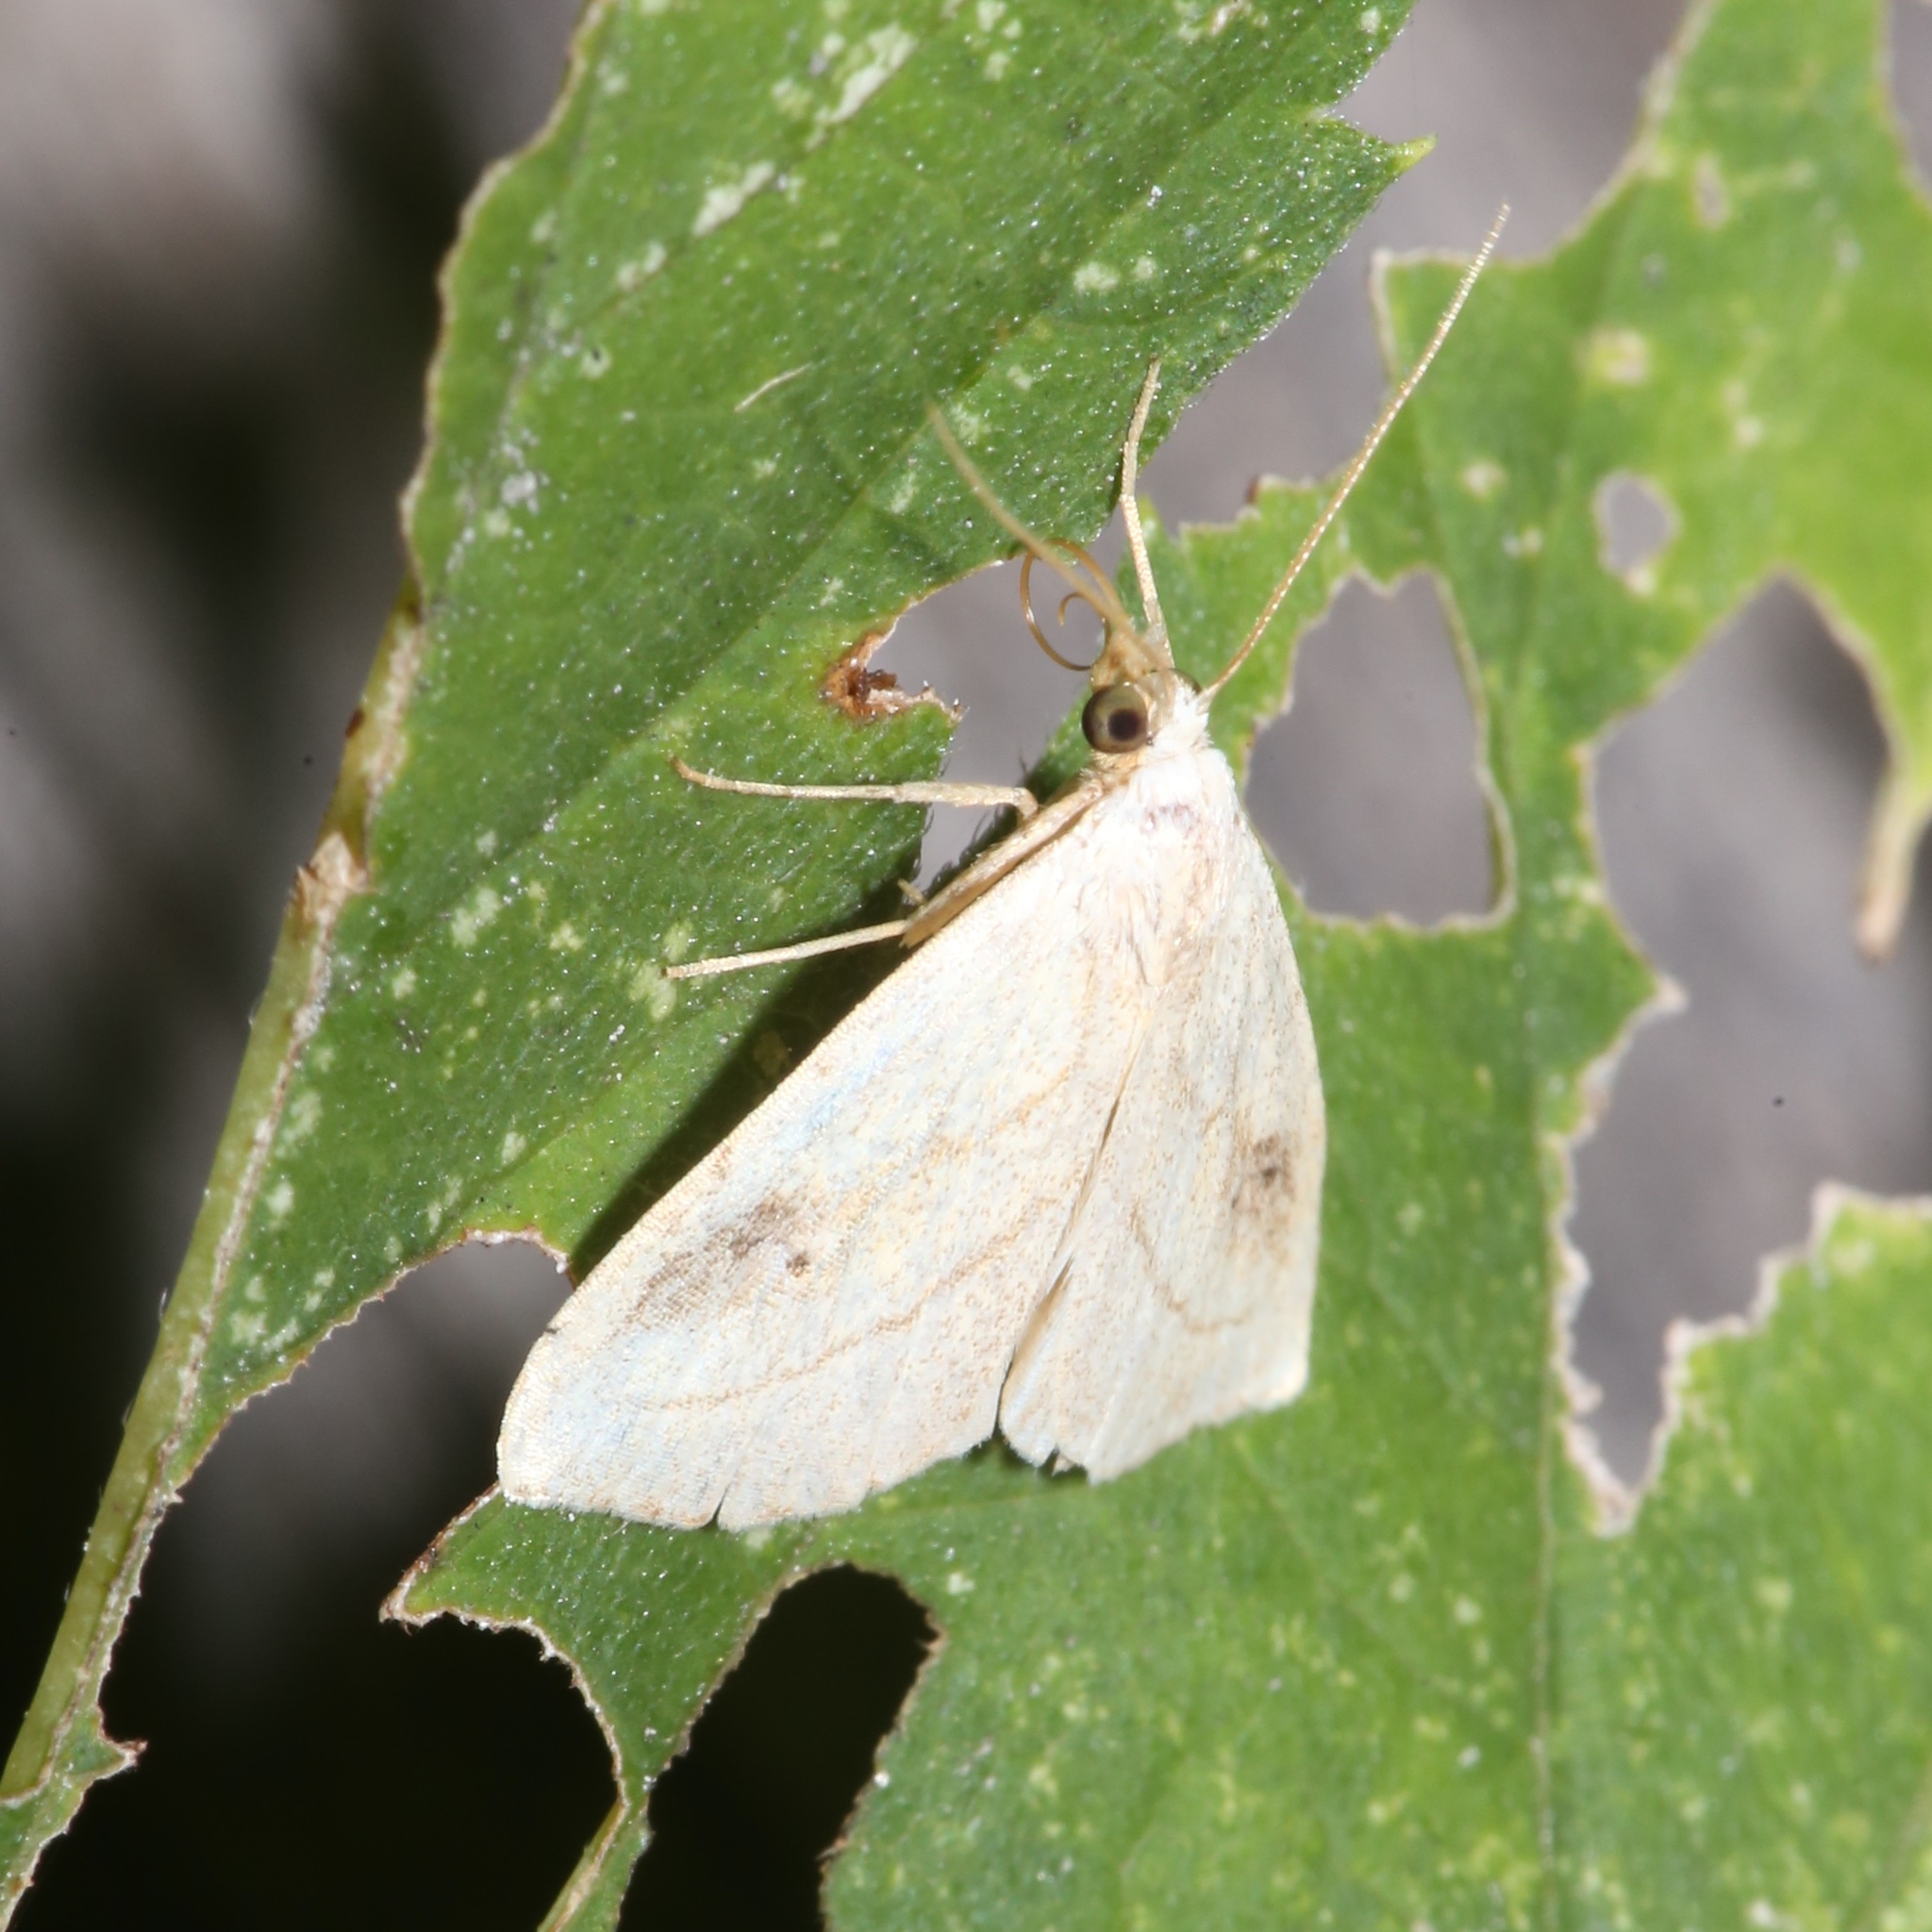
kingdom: Animalia
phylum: Arthropoda
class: Insecta
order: Lepidoptera
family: Erebidae
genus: Rivula
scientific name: Rivula propinqualis
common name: Spotted grass moth
